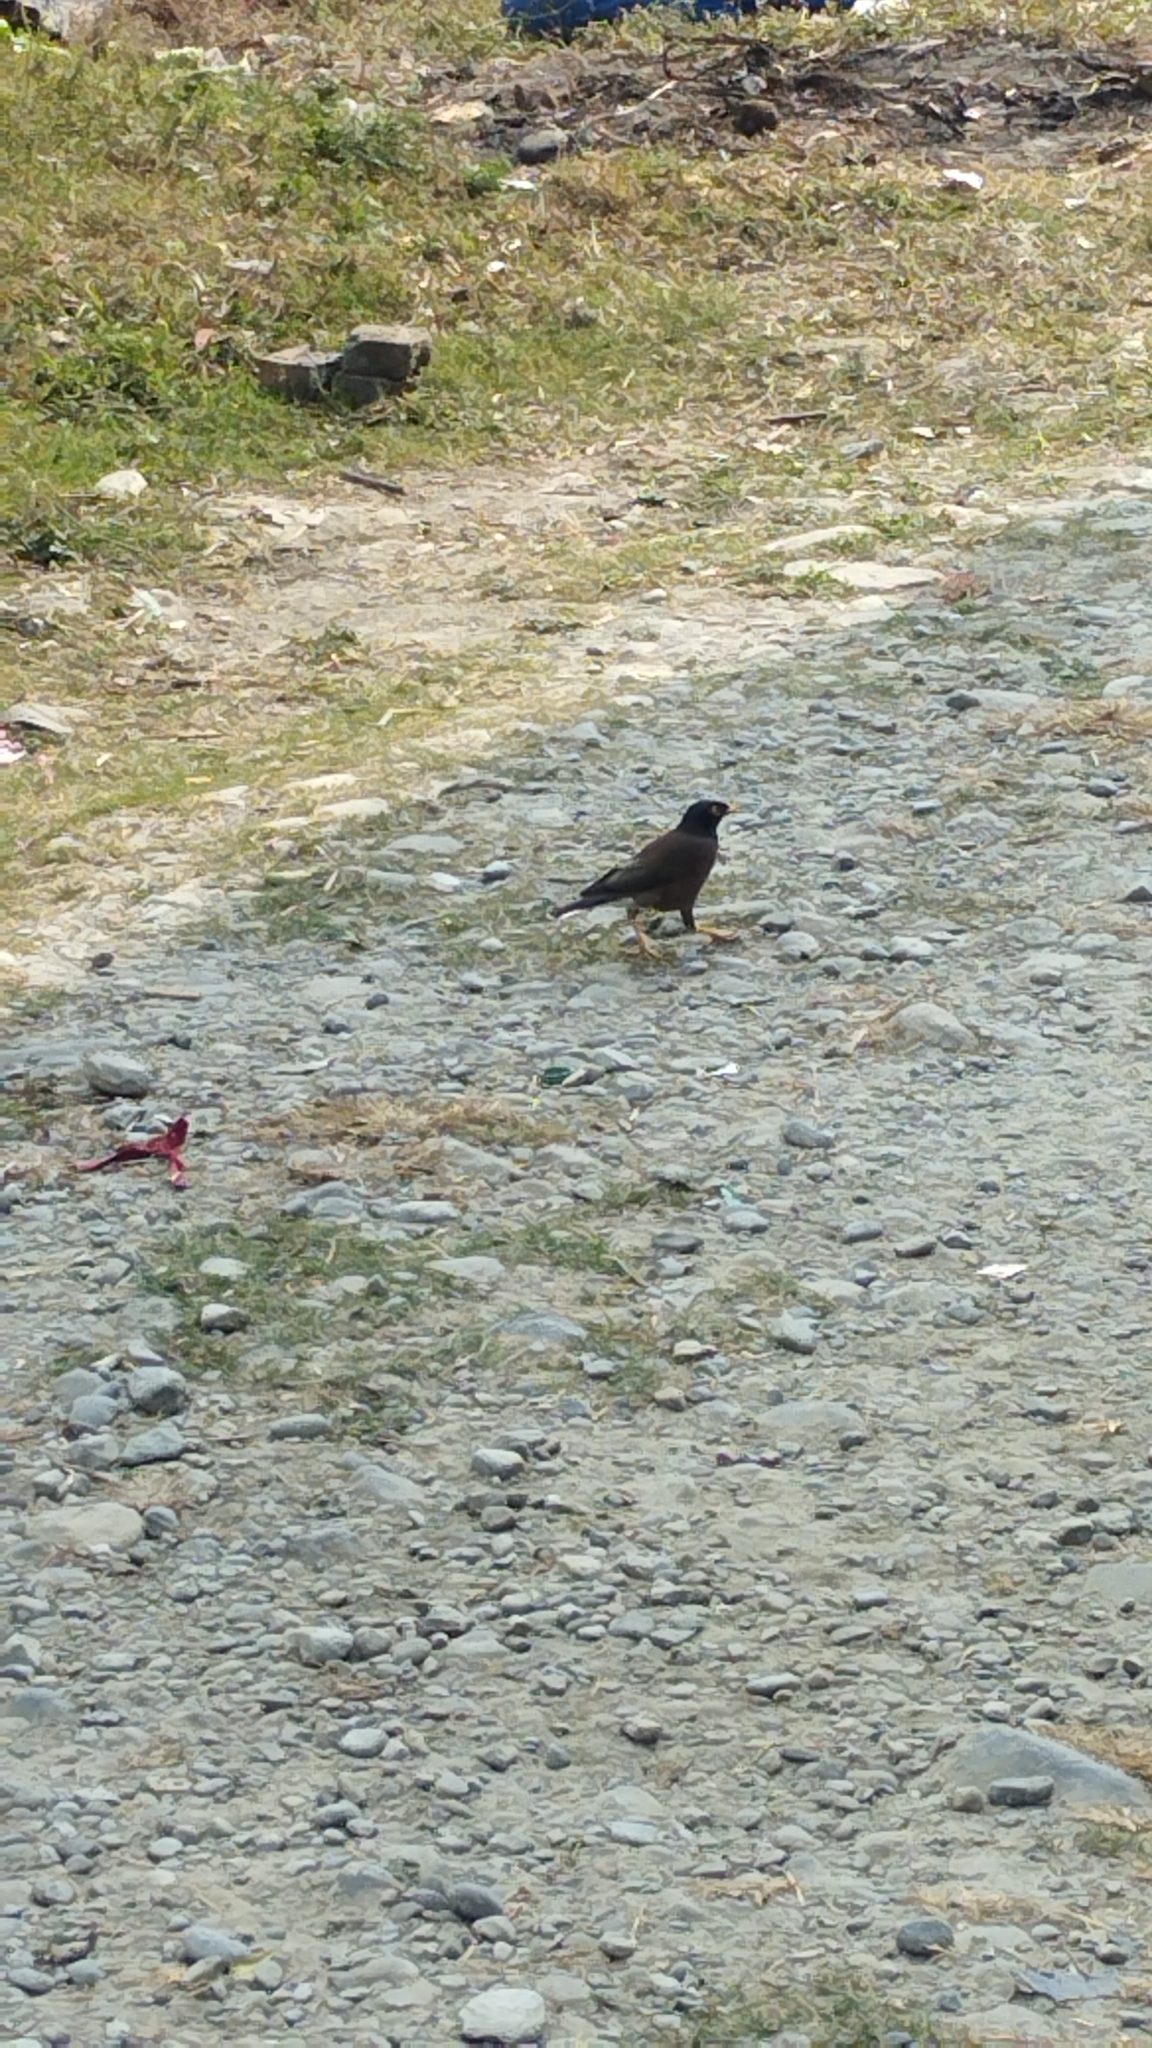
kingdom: Animalia
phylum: Chordata
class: Aves
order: Passeriformes
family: Sturnidae
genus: Acridotheres
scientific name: Acridotheres tristis
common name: Common myna
